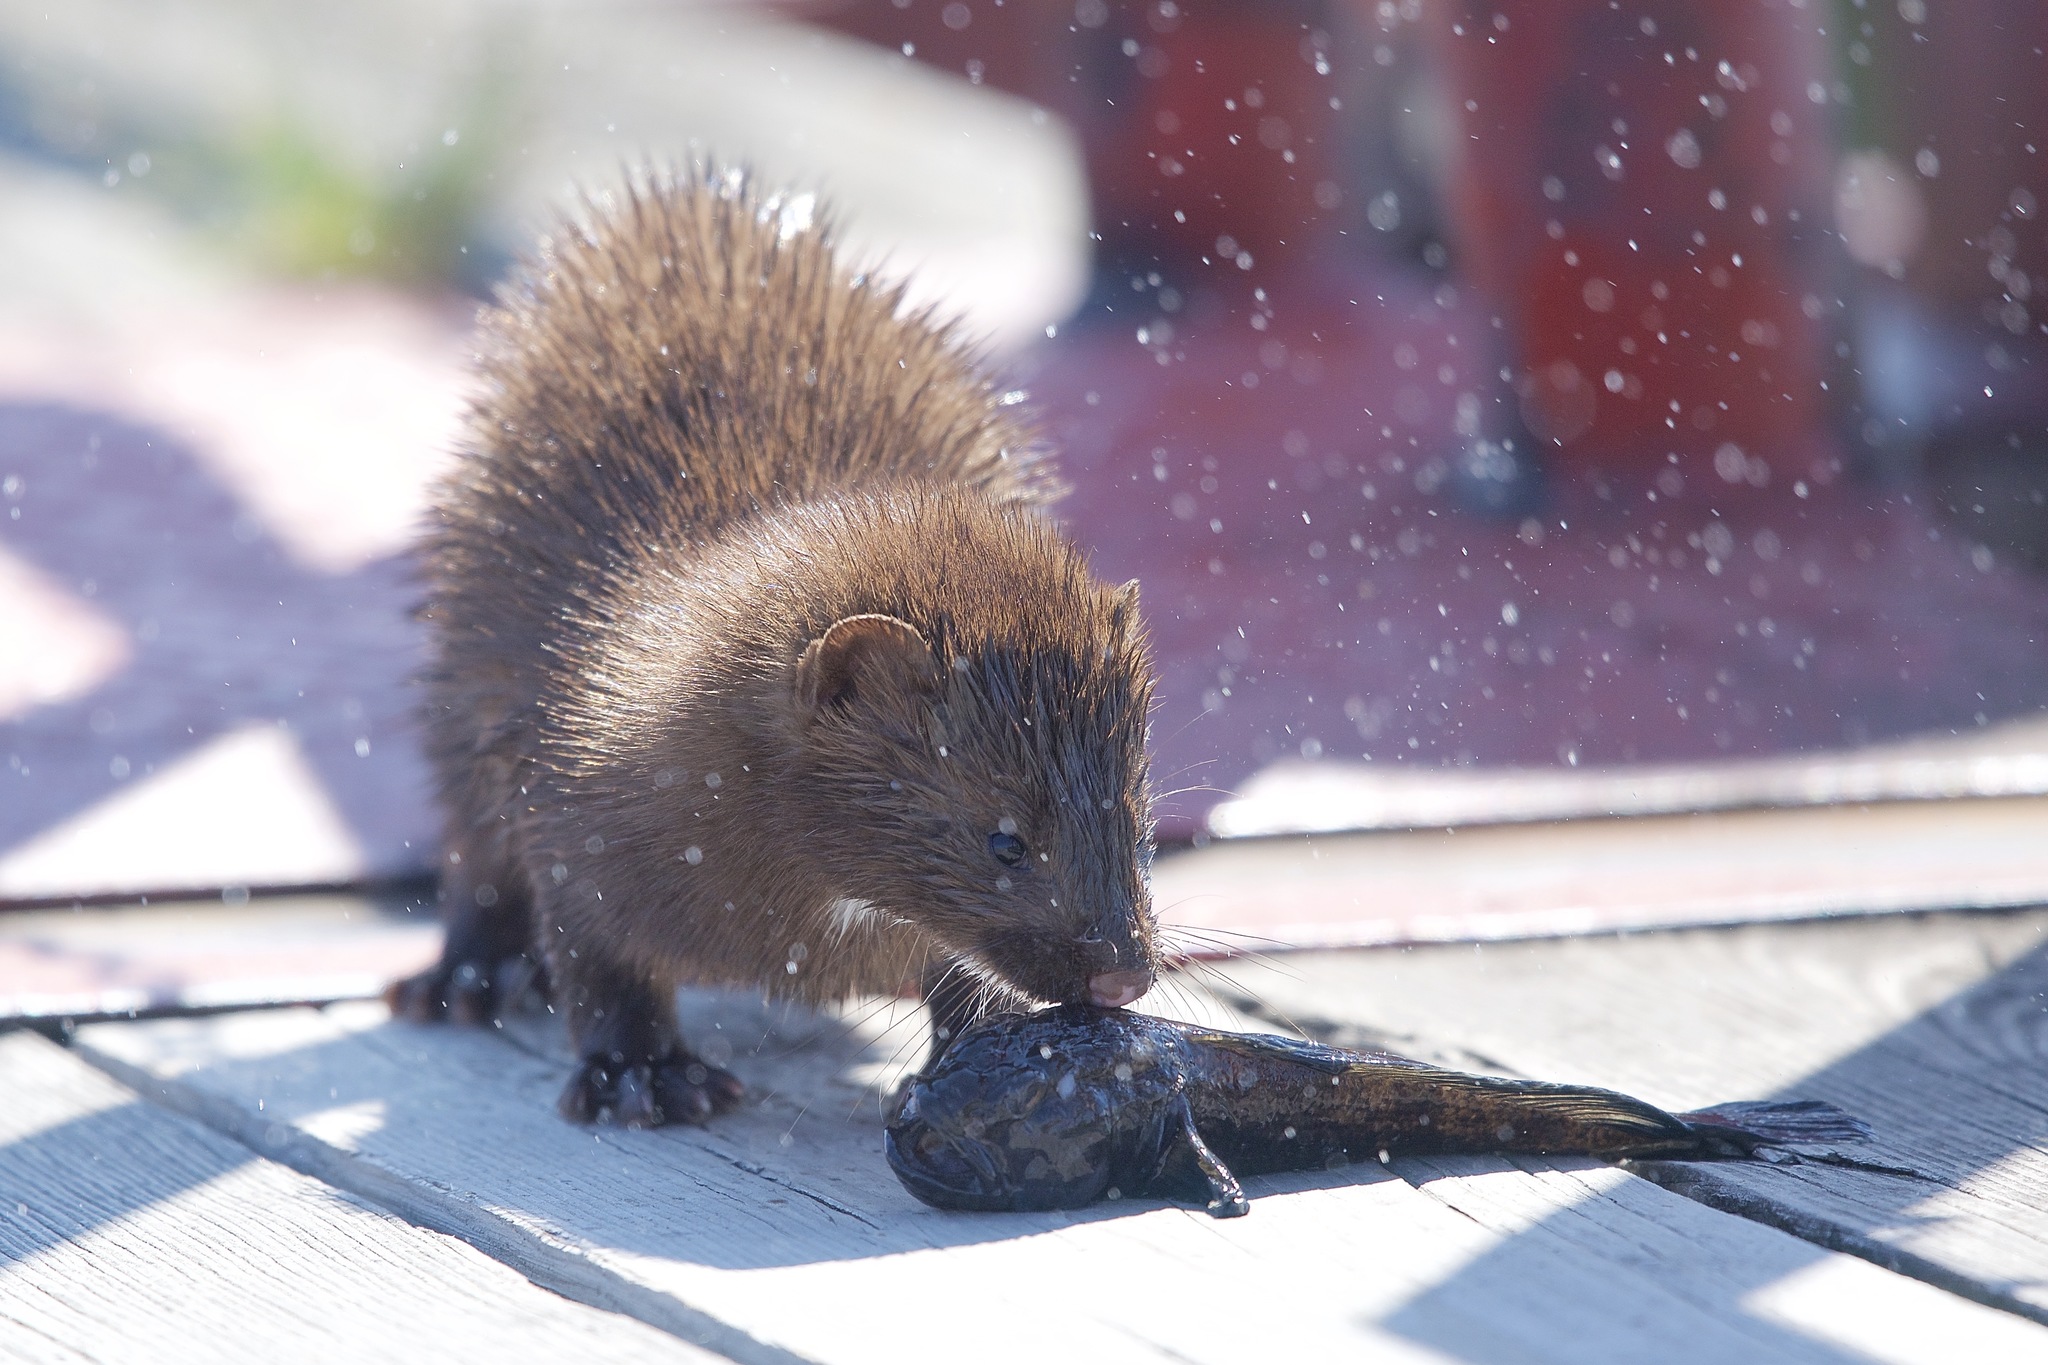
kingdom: Animalia
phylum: Chordata
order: Perciformes
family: Gobiidae
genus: Neogobius
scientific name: Neogobius melanostomus
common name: Round goby
